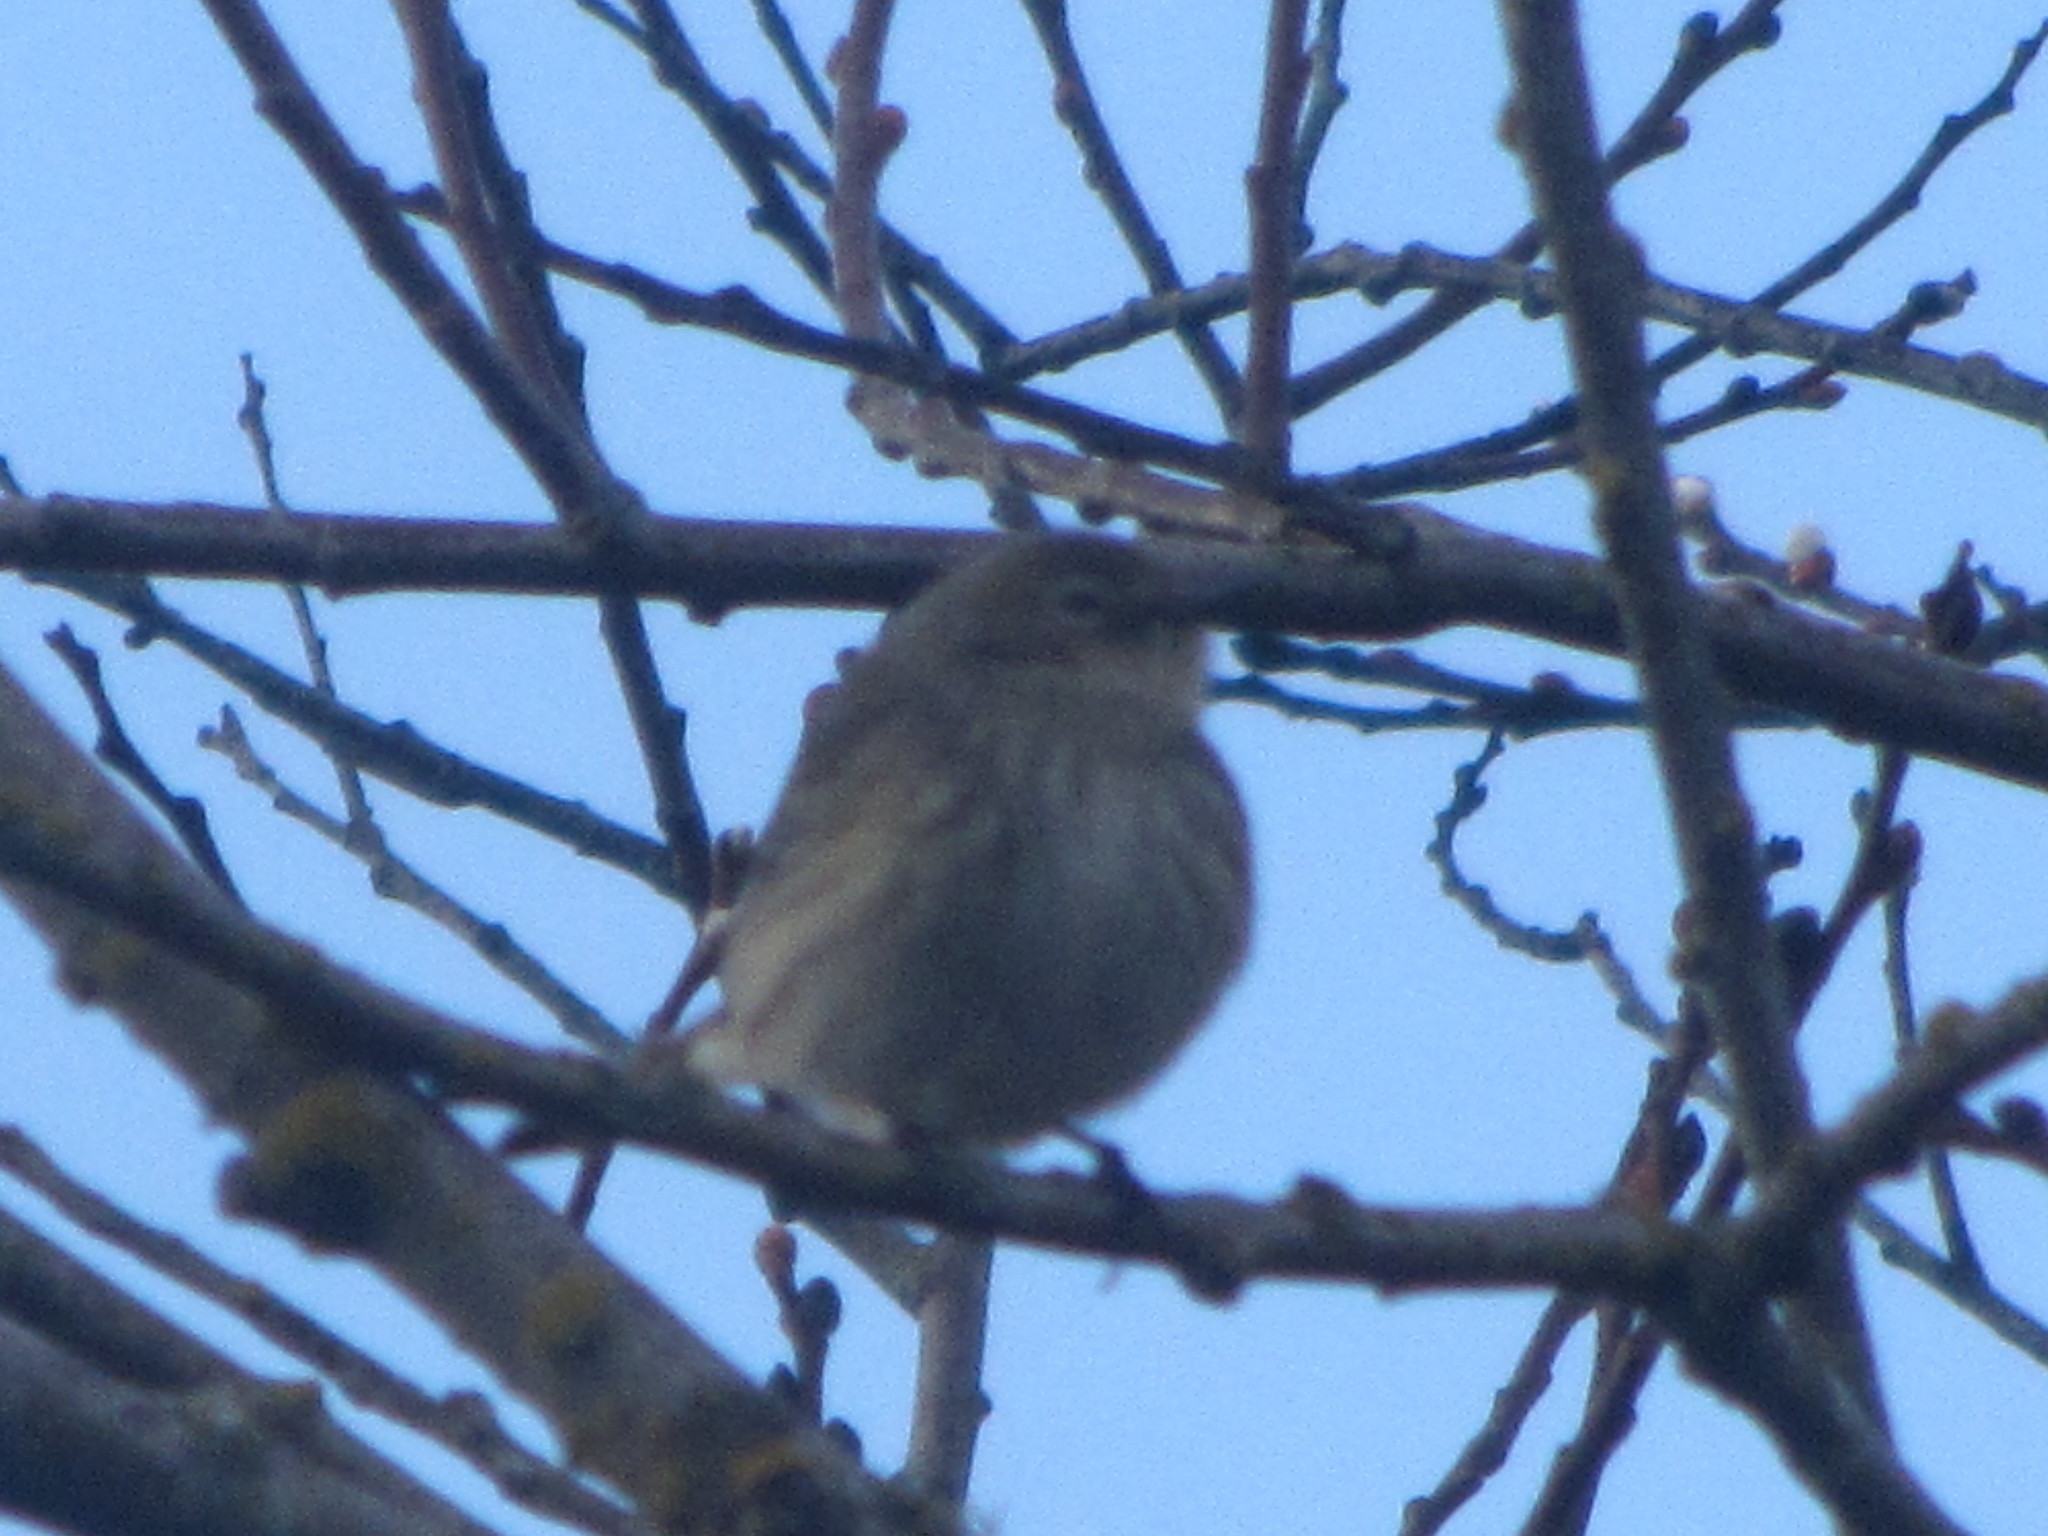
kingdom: Animalia
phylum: Chordata
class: Aves
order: Passeriformes
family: Parulidae
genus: Setophaga
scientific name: Setophaga coronata
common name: Myrtle warbler
